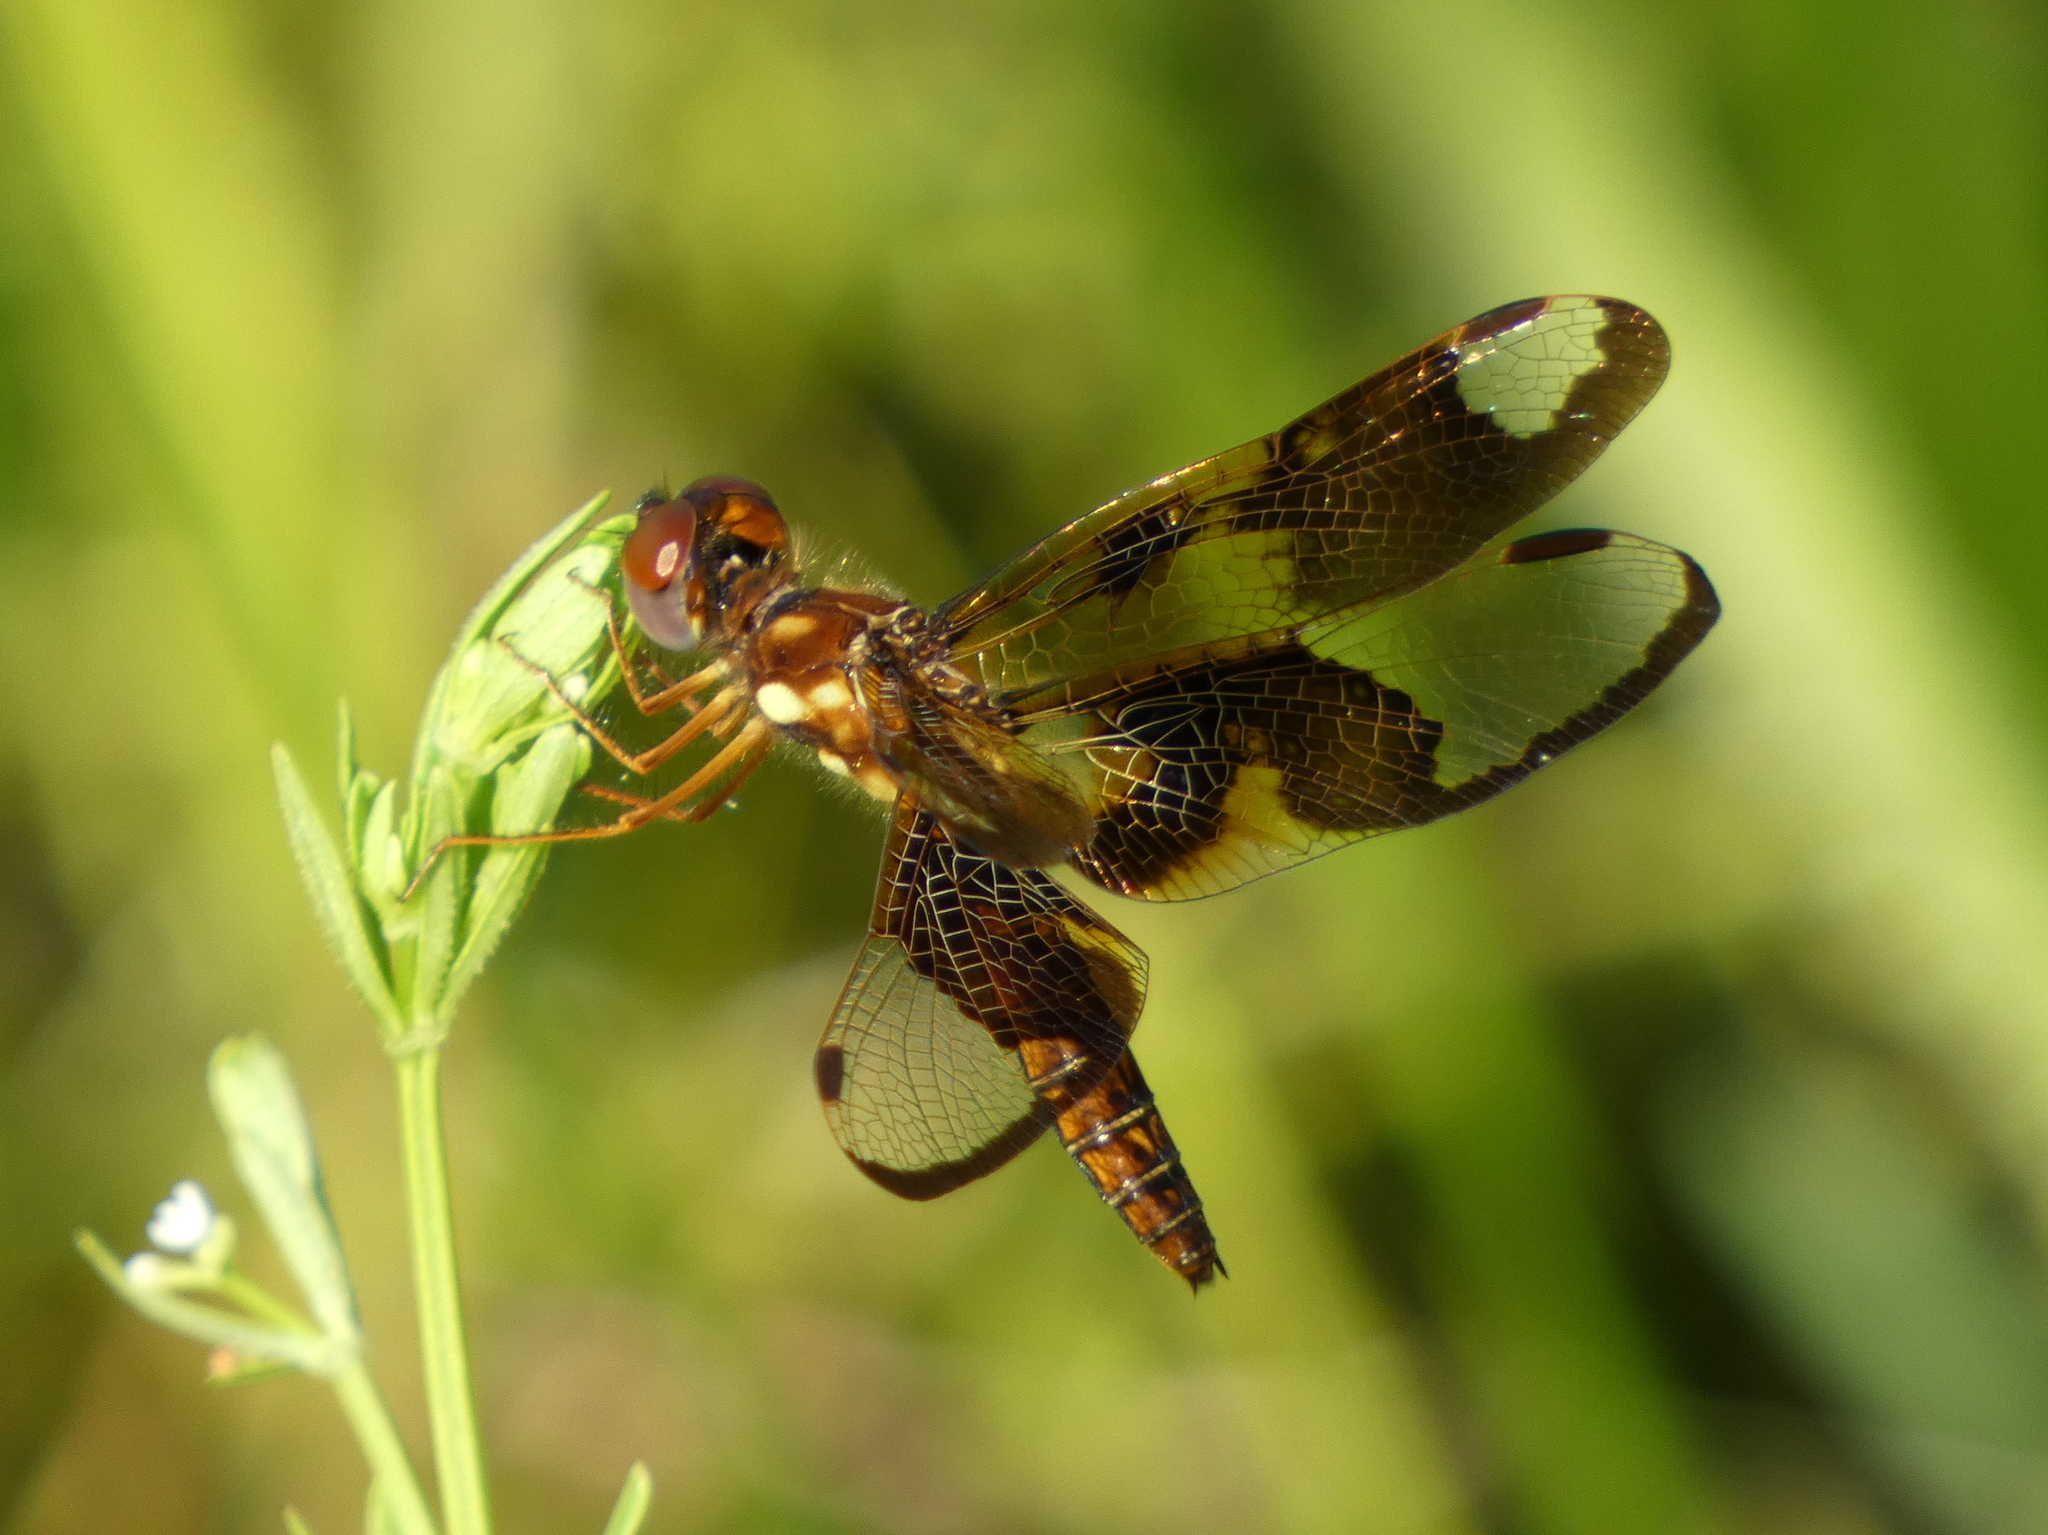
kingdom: Animalia
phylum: Arthropoda
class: Insecta
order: Odonata
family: Libellulidae
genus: Perithemis
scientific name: Perithemis tenera
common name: Eastern amberwing
